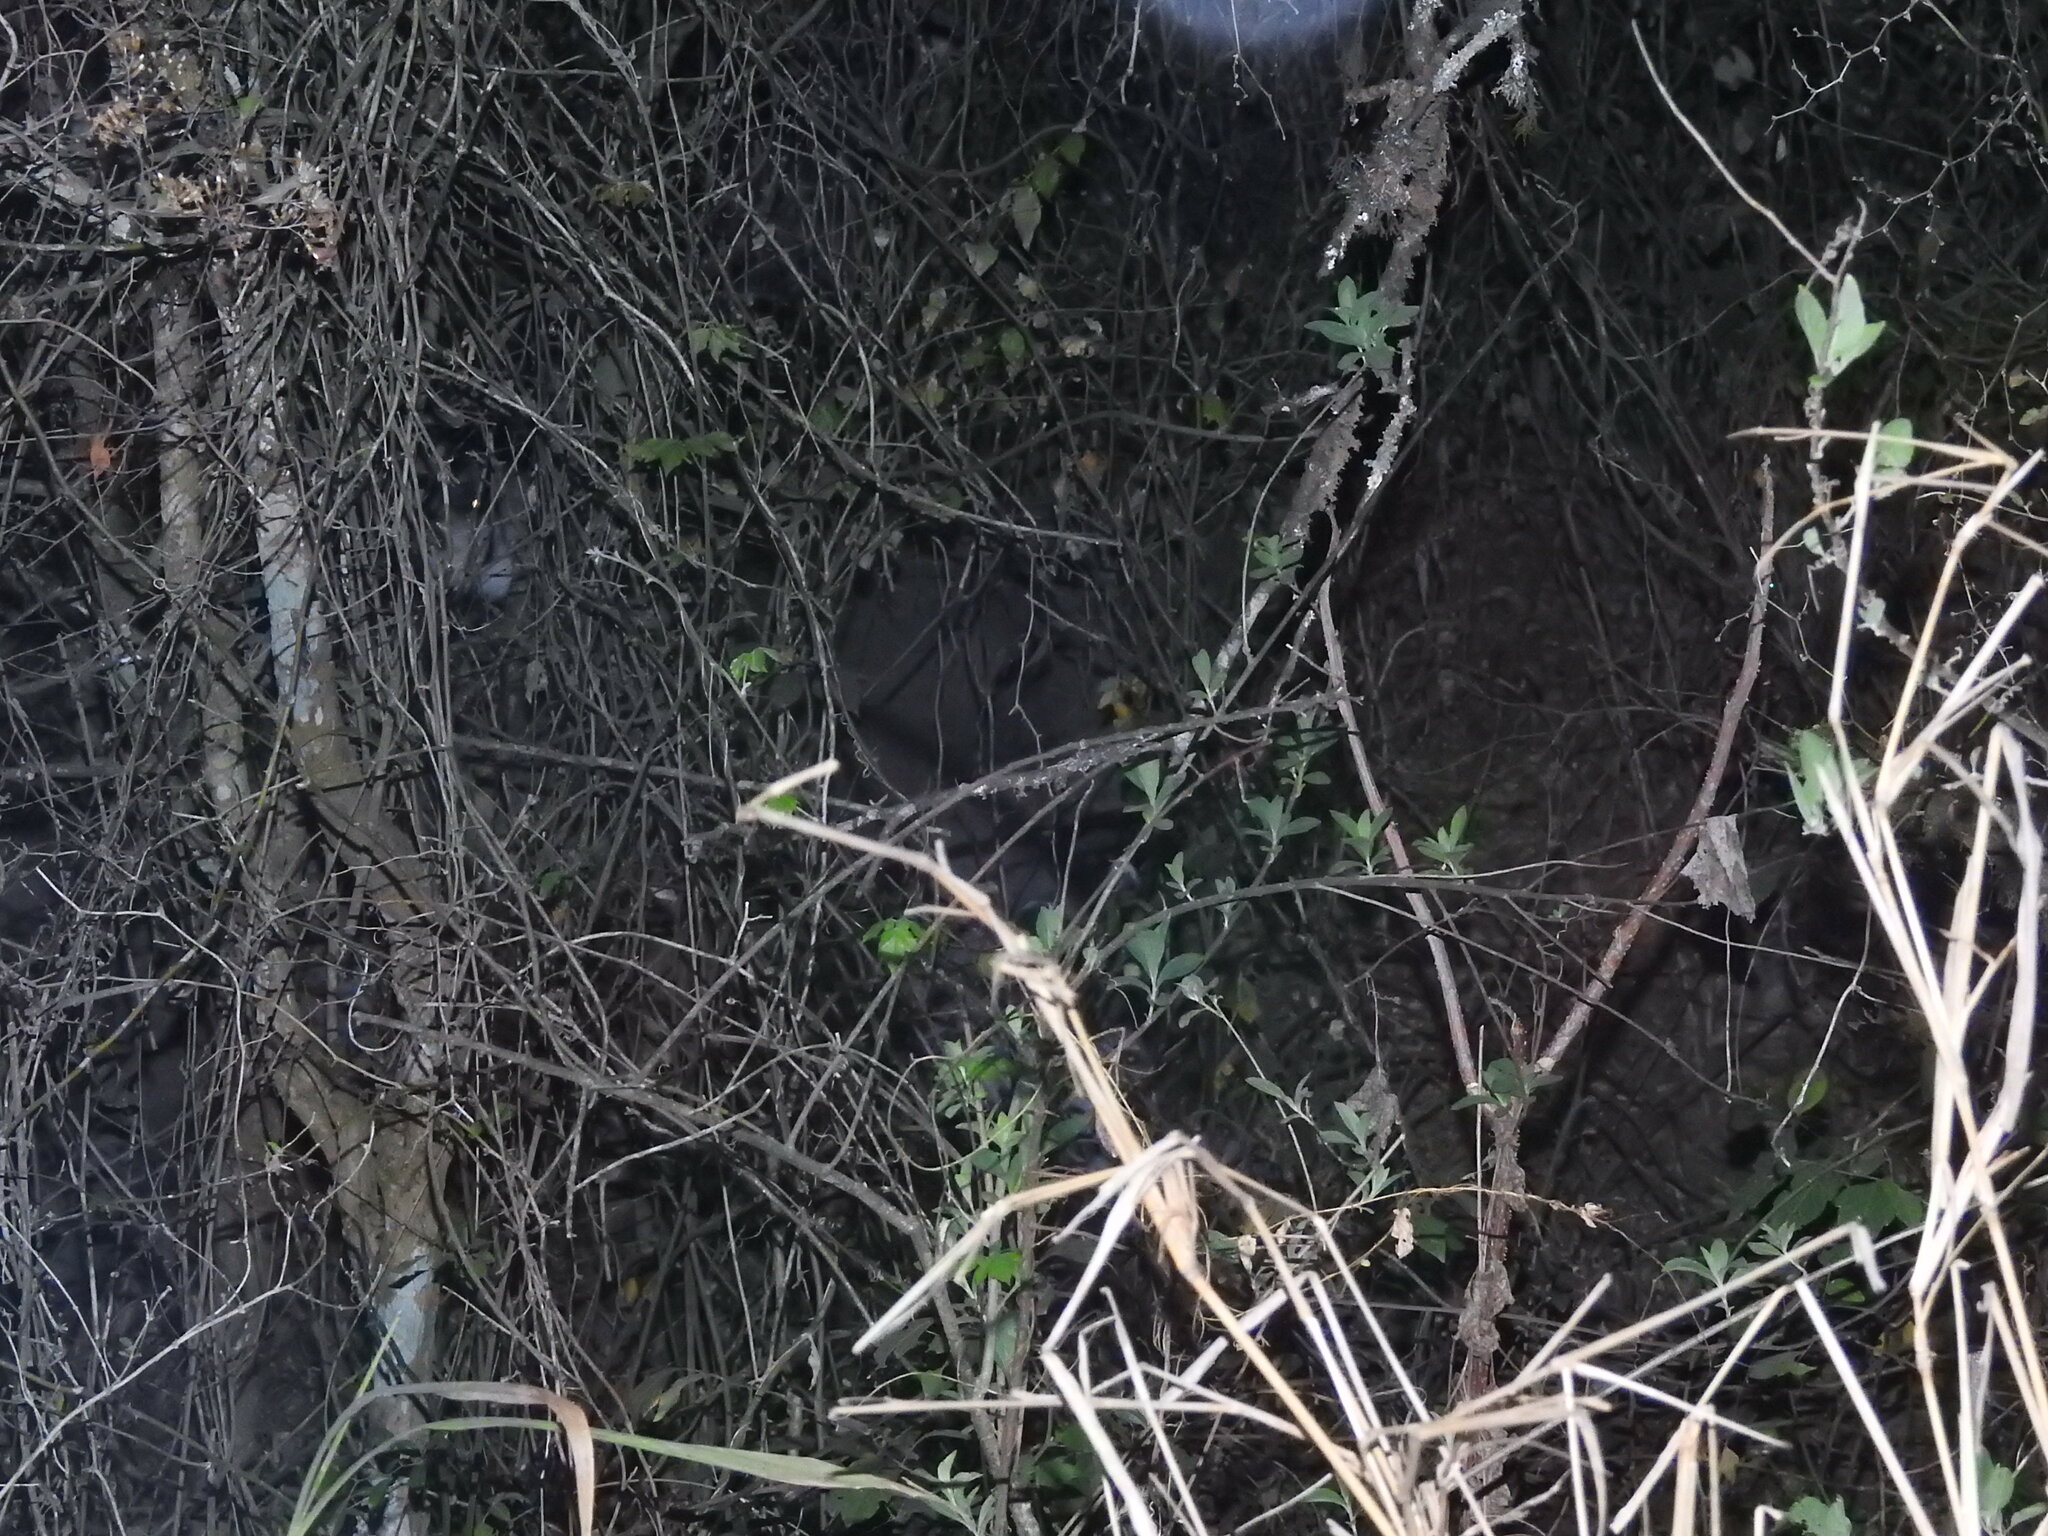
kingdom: Animalia
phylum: Chordata
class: Mammalia
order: Perissodactyla
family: Tapiridae
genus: Tapirus
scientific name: Tapirus terrestris
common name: Brazilian tapir
